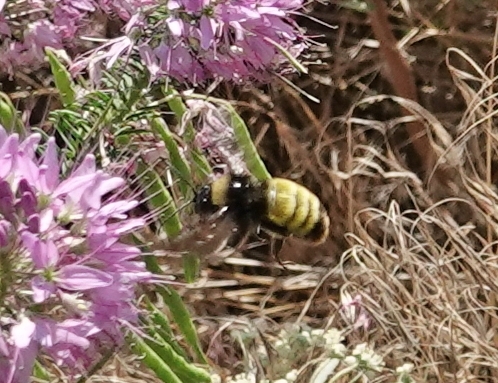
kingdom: Animalia
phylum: Arthropoda
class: Insecta
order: Hymenoptera
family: Apidae
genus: Bombus
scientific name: Bombus pensylvanicus
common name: Bumble bee
